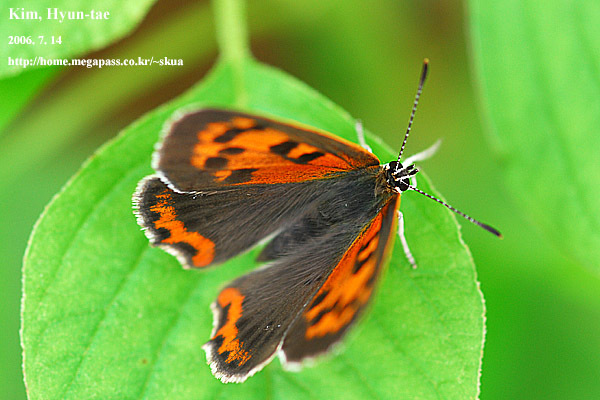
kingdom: Animalia
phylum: Arthropoda
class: Insecta
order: Lepidoptera
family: Lycaenidae
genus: Lycaena
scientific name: Lycaena phlaeas
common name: Small copper
